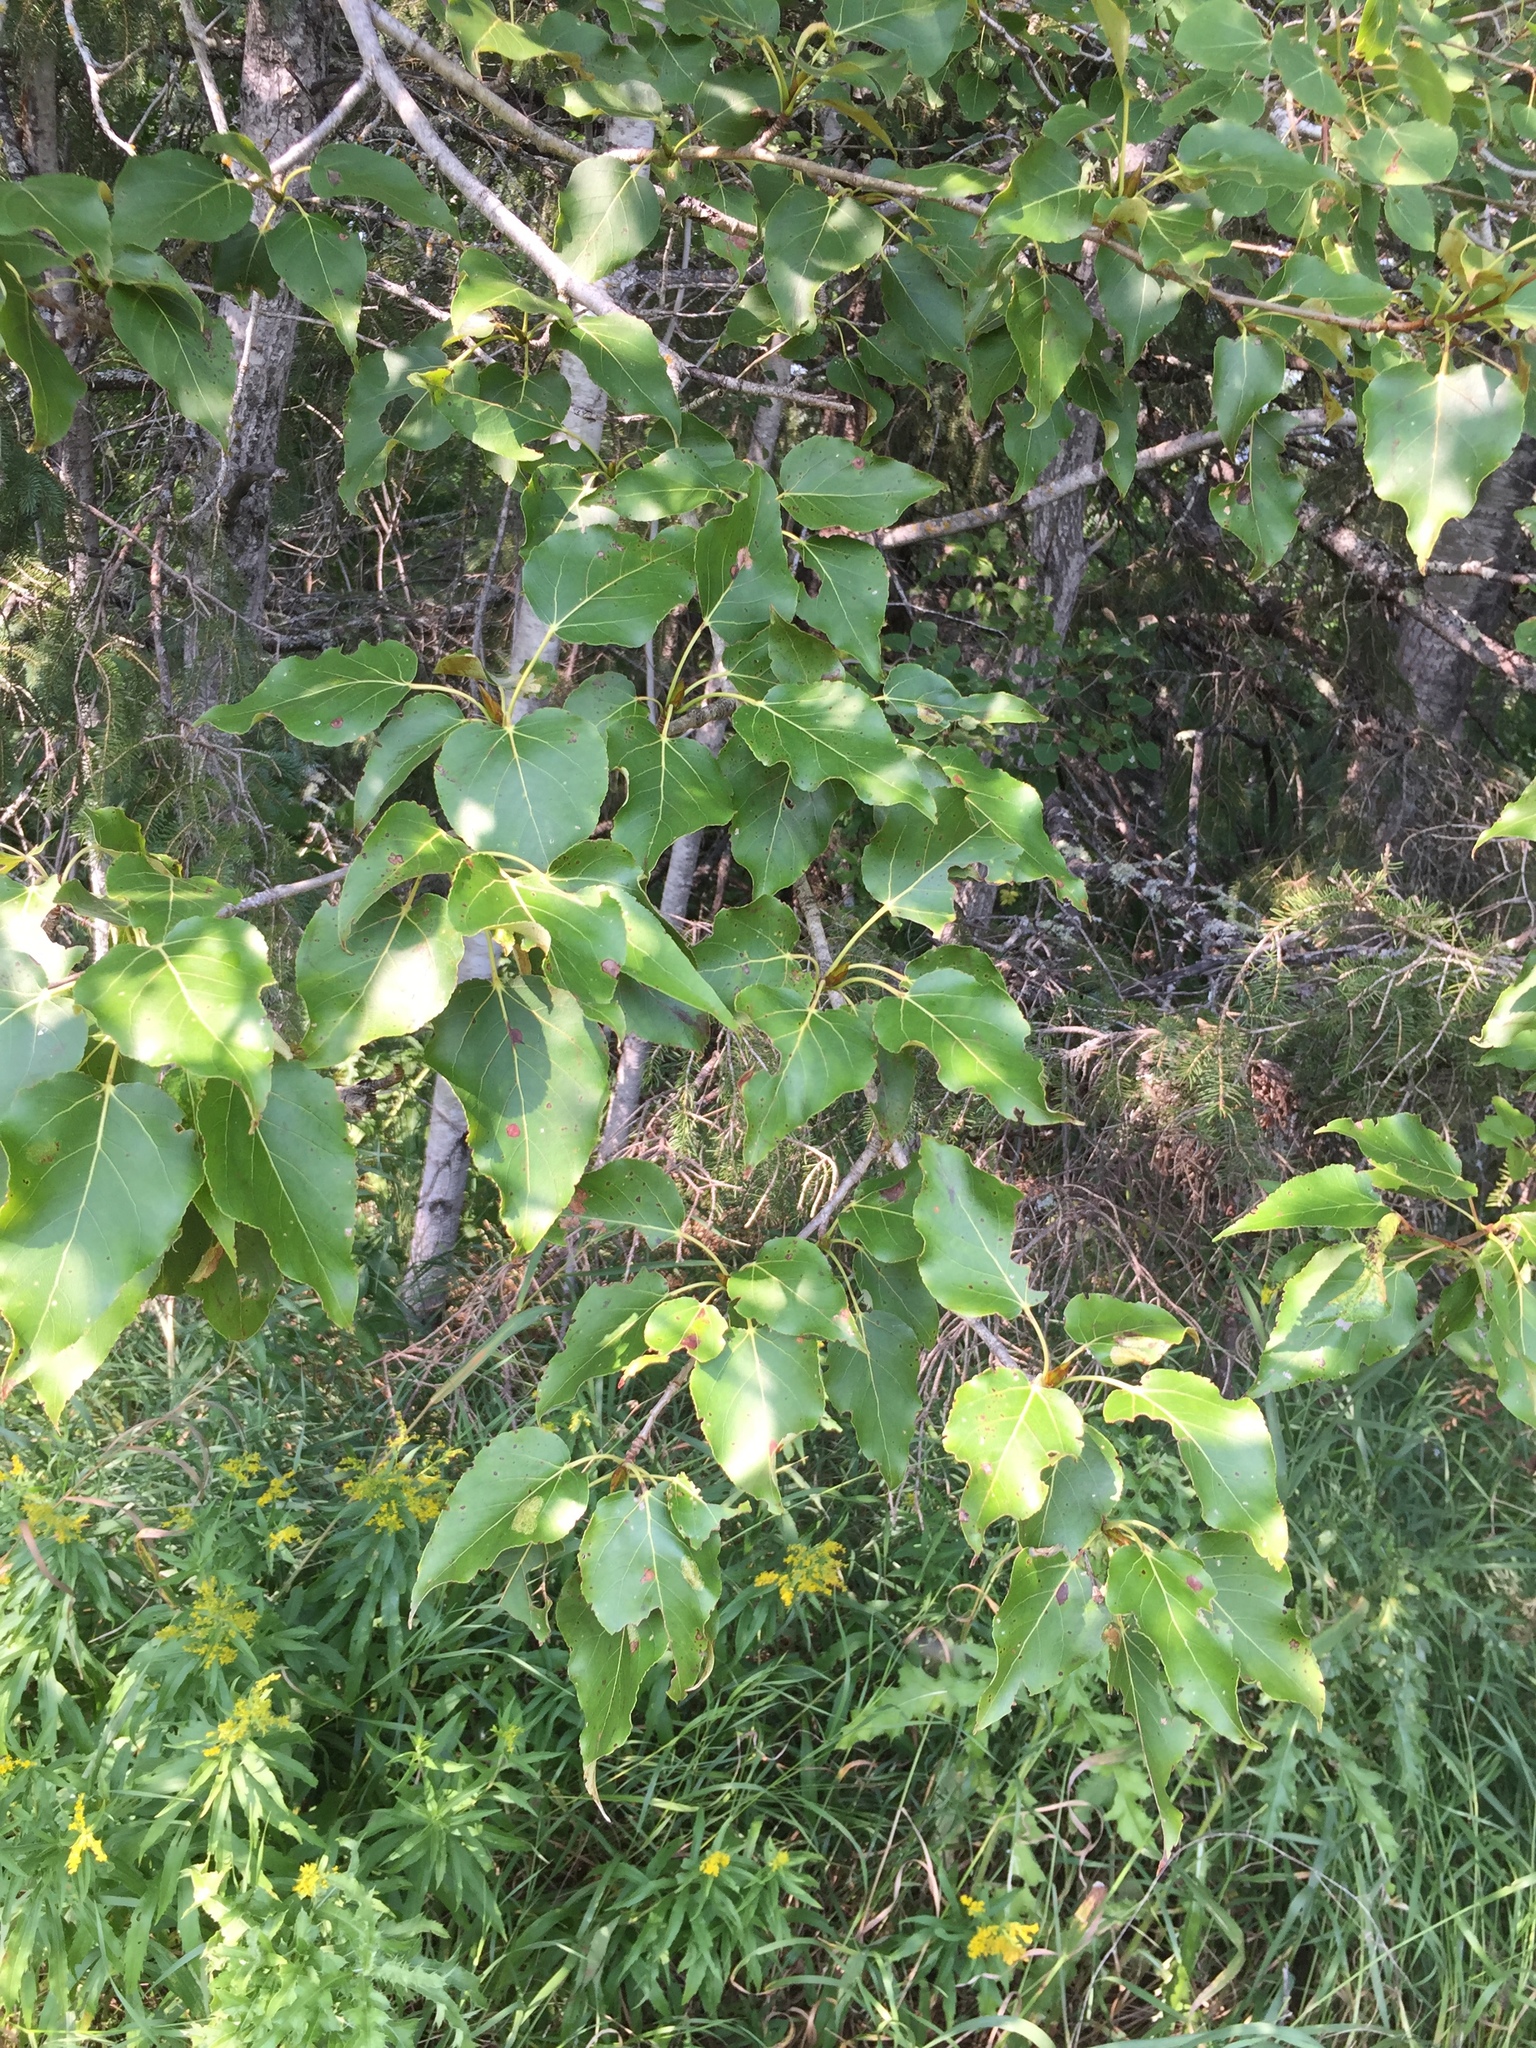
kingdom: Plantae
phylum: Tracheophyta
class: Magnoliopsida
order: Malpighiales
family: Salicaceae
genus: Populus
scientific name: Populus balsamifera
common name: Balsam poplar
